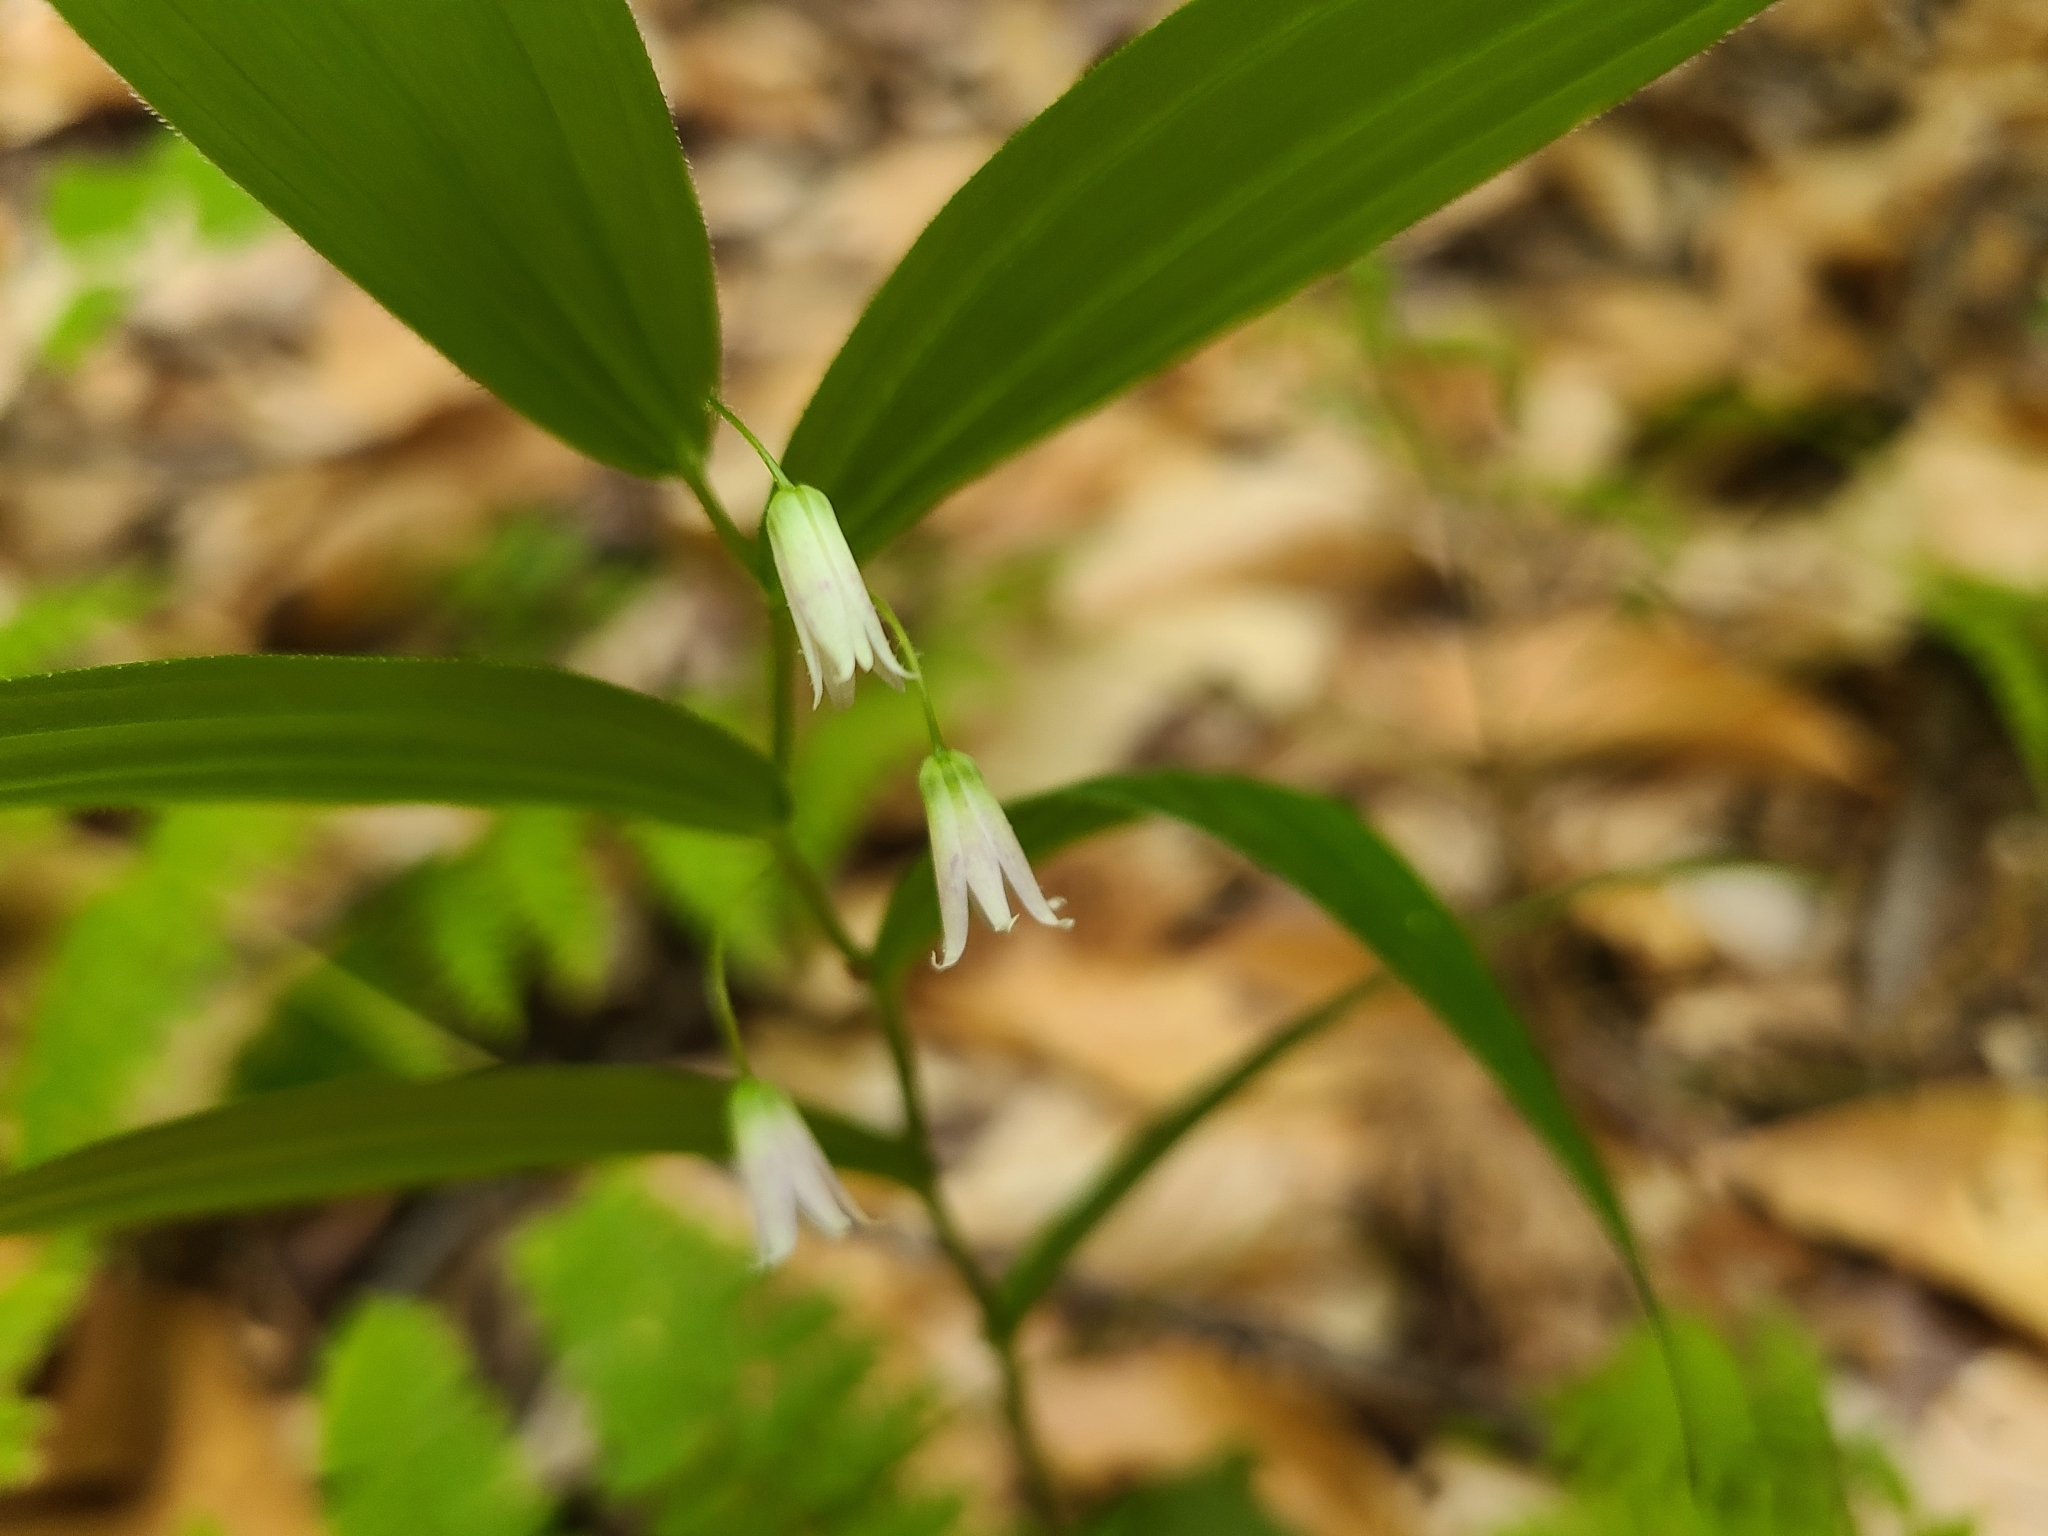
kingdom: Plantae
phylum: Tracheophyta
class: Liliopsida
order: Liliales
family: Liliaceae
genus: Streptopus
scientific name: Streptopus lanceolatus
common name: Rose mandarin
